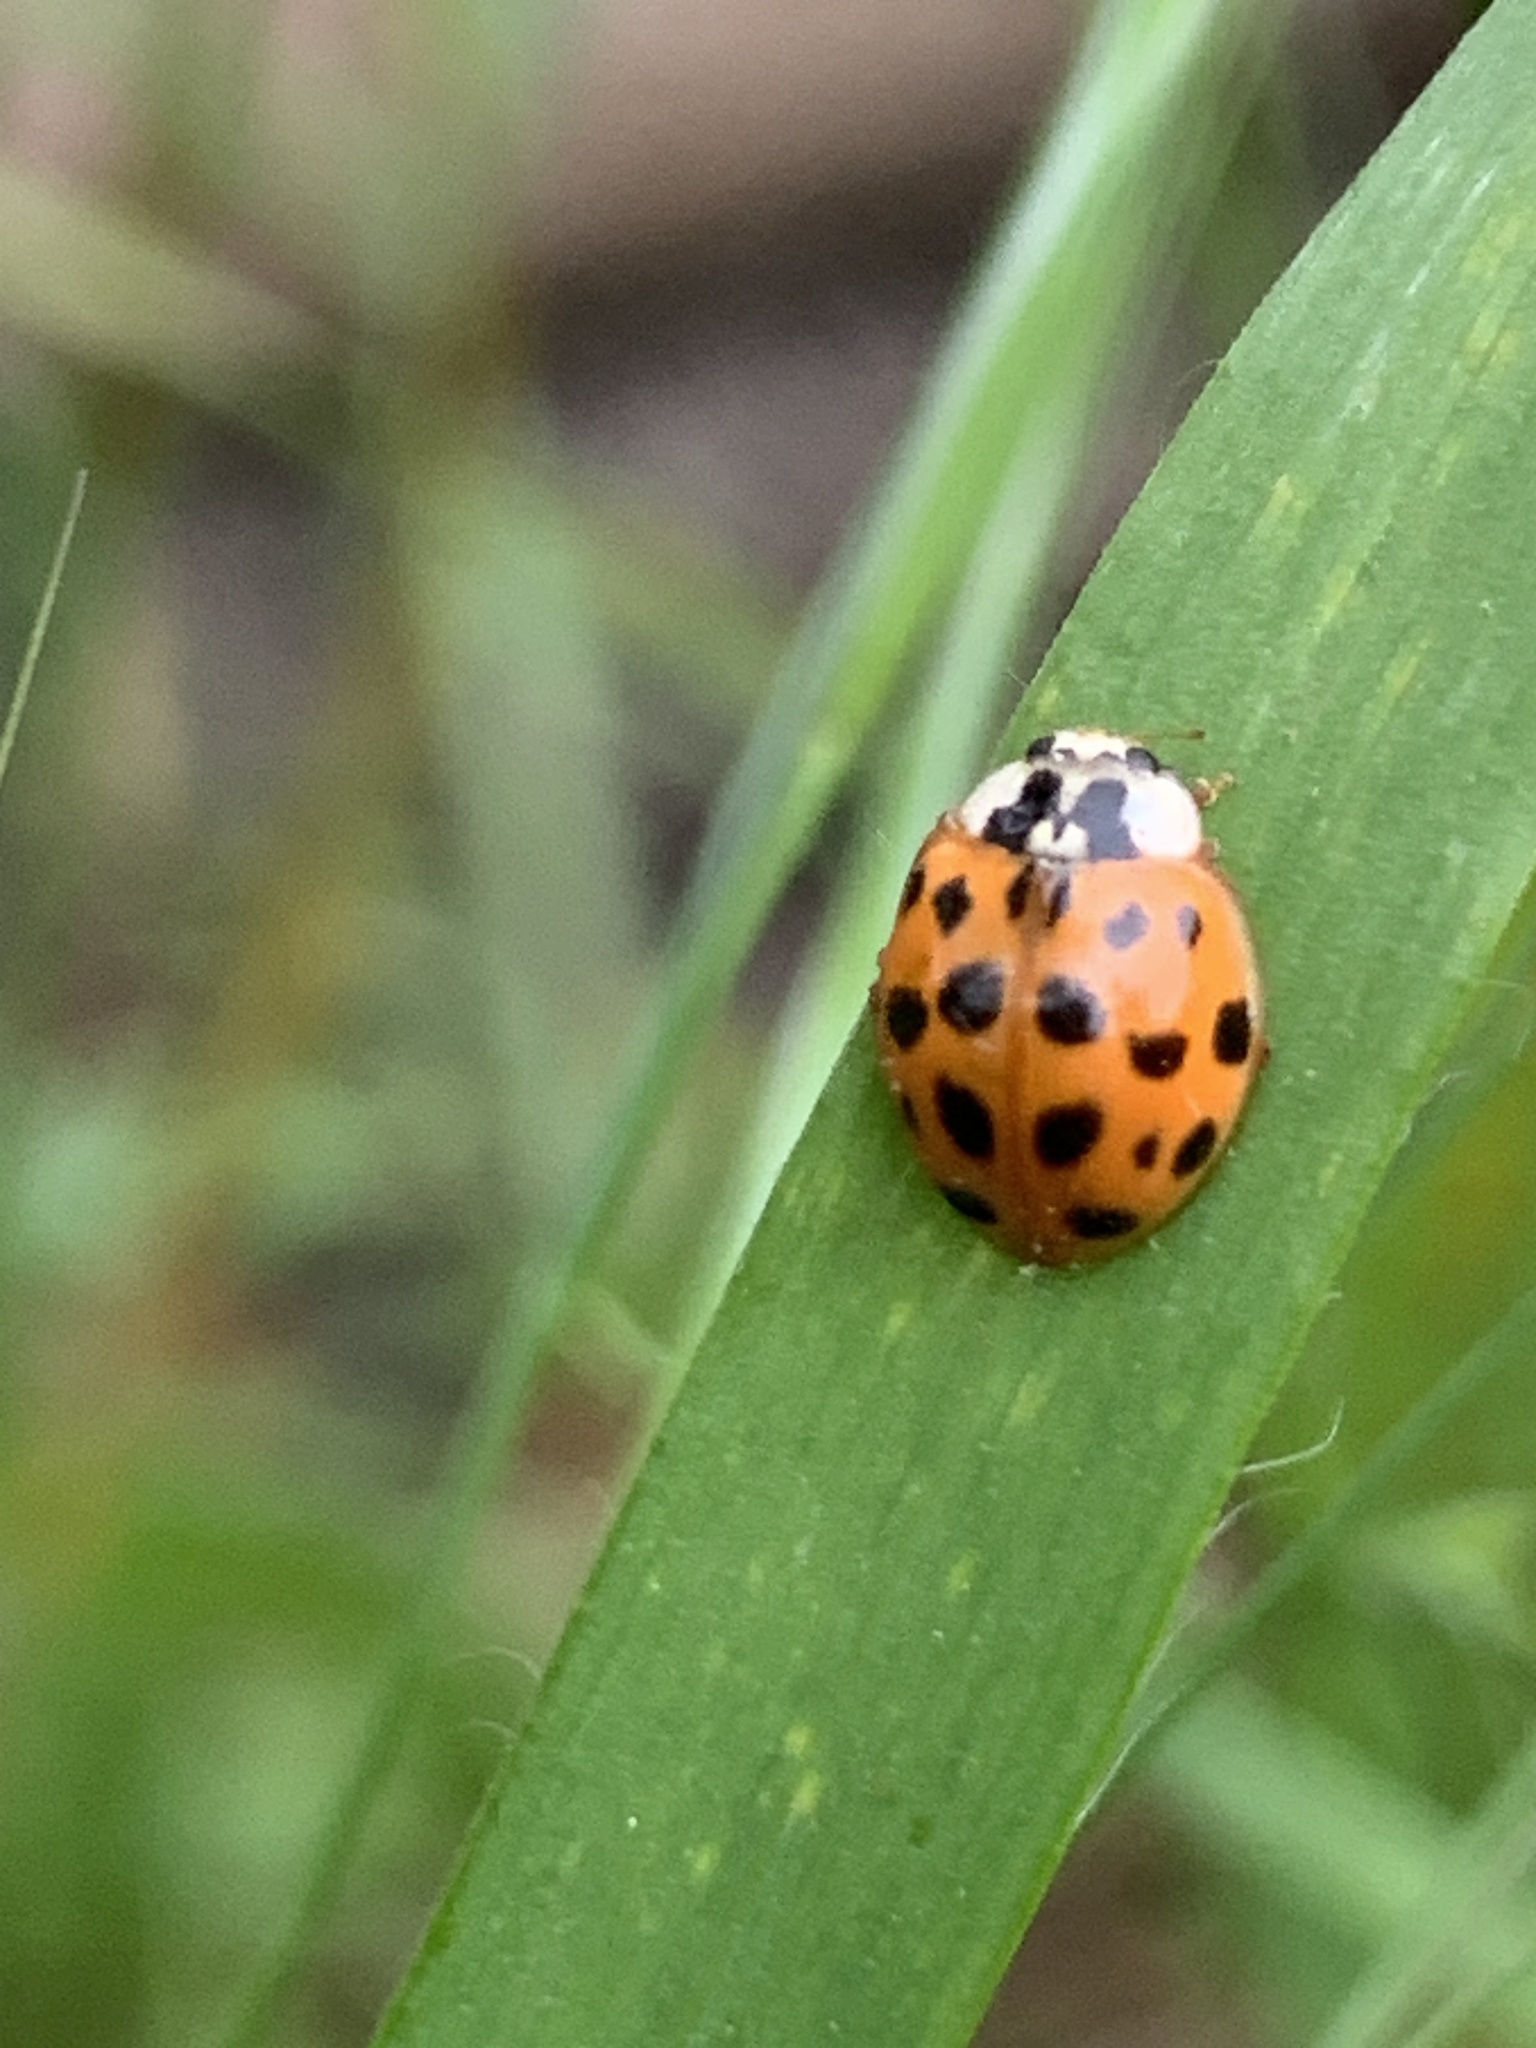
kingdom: Animalia
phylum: Arthropoda
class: Insecta
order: Coleoptera
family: Coccinellidae
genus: Harmonia
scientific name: Harmonia axyridis
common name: Harlequin ladybird
